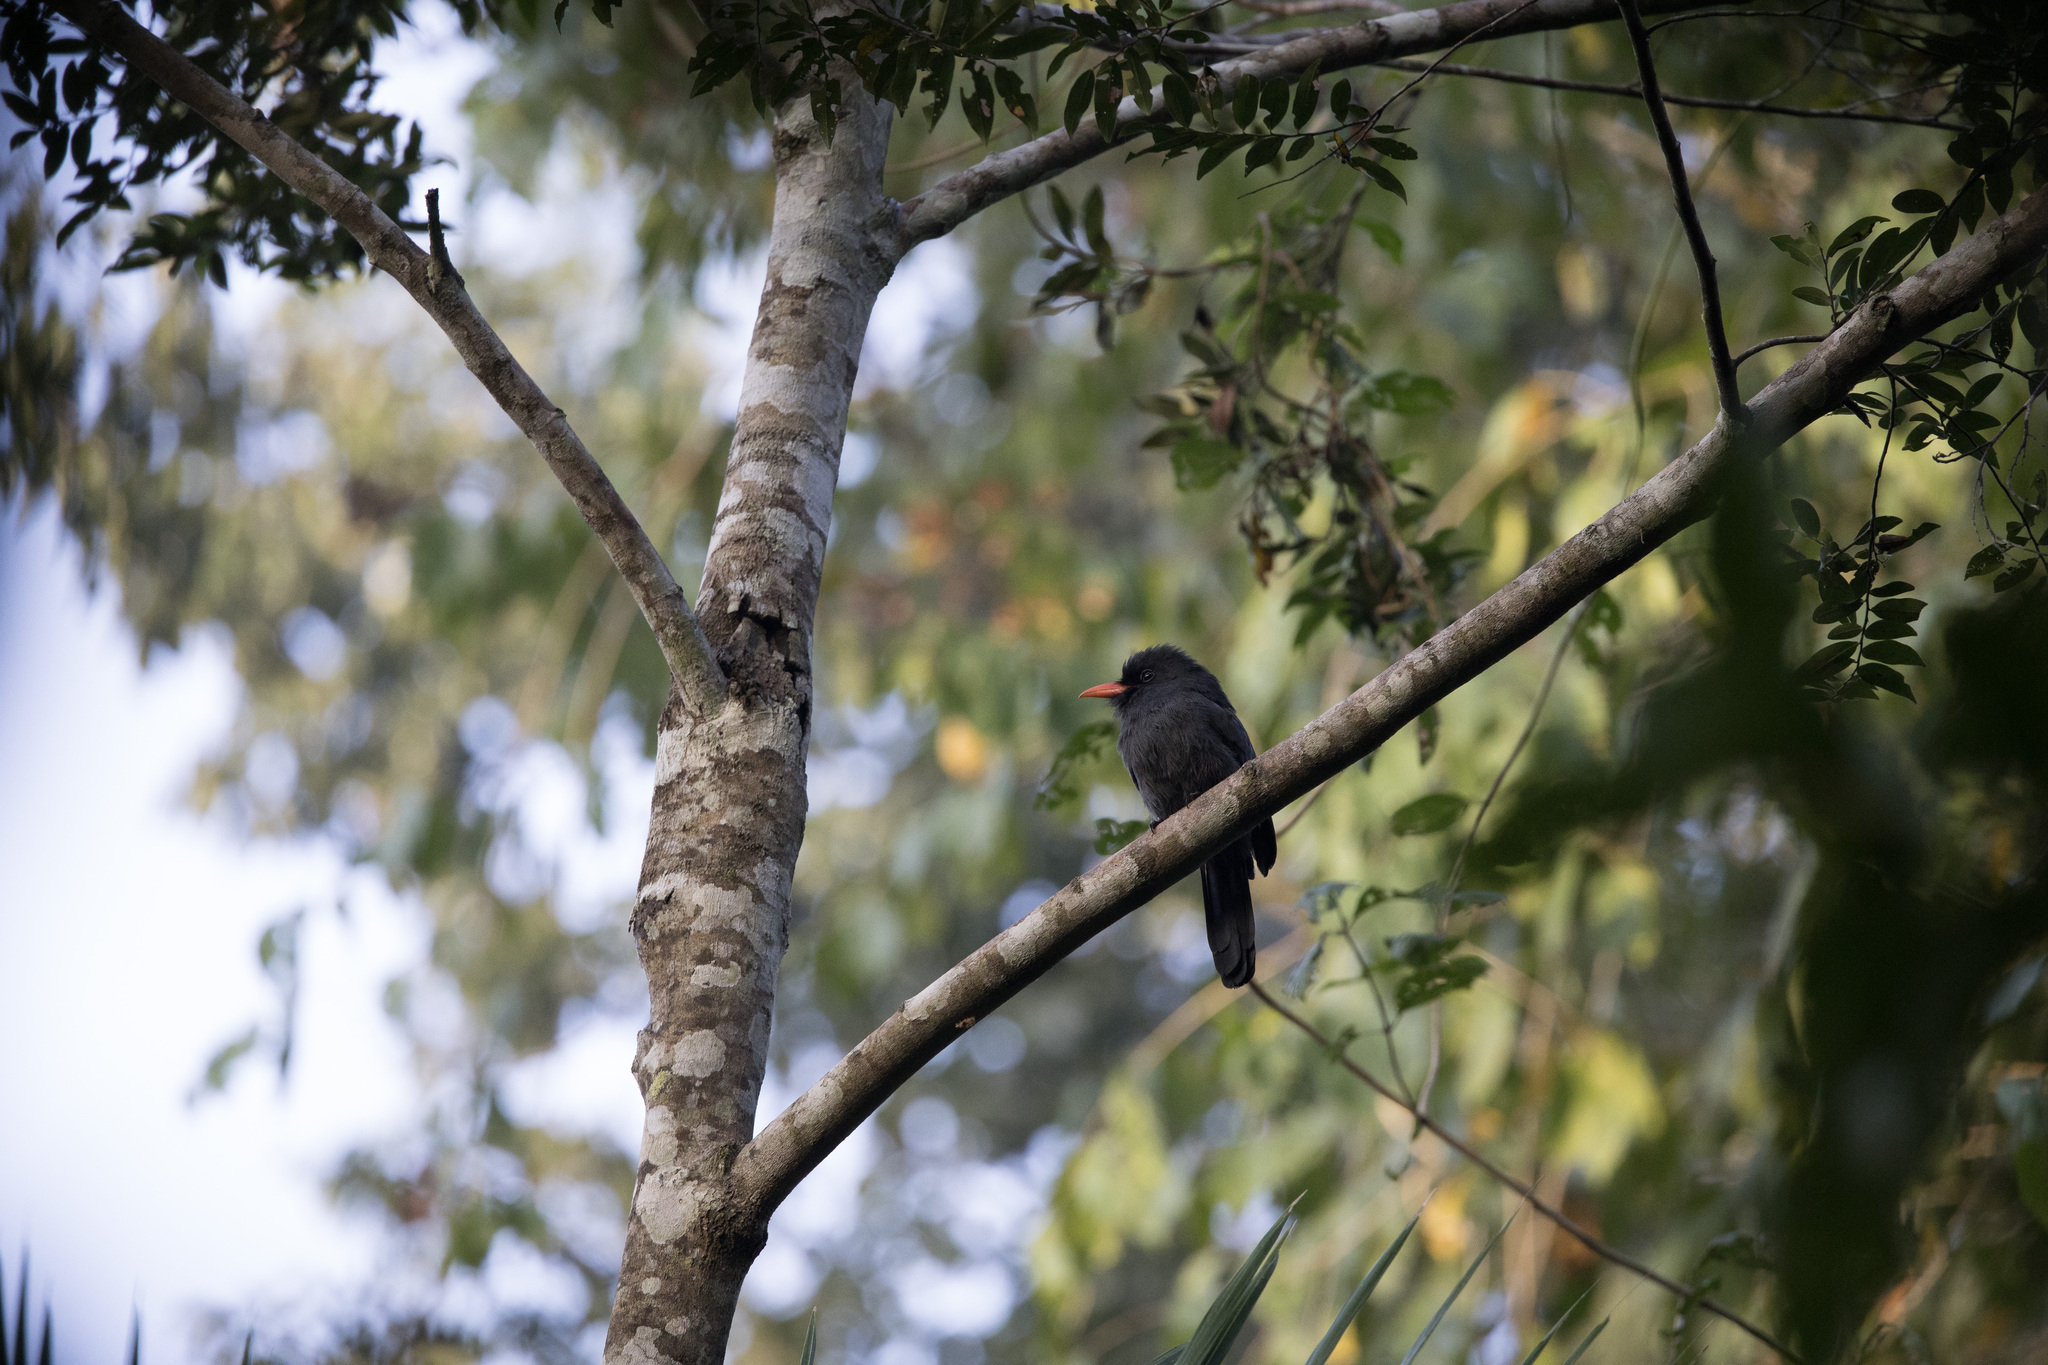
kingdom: Animalia
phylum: Chordata
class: Aves
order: Piciformes
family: Bucconidae
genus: Monasa
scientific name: Monasa nigrifrons
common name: Black-fronted nunbird
